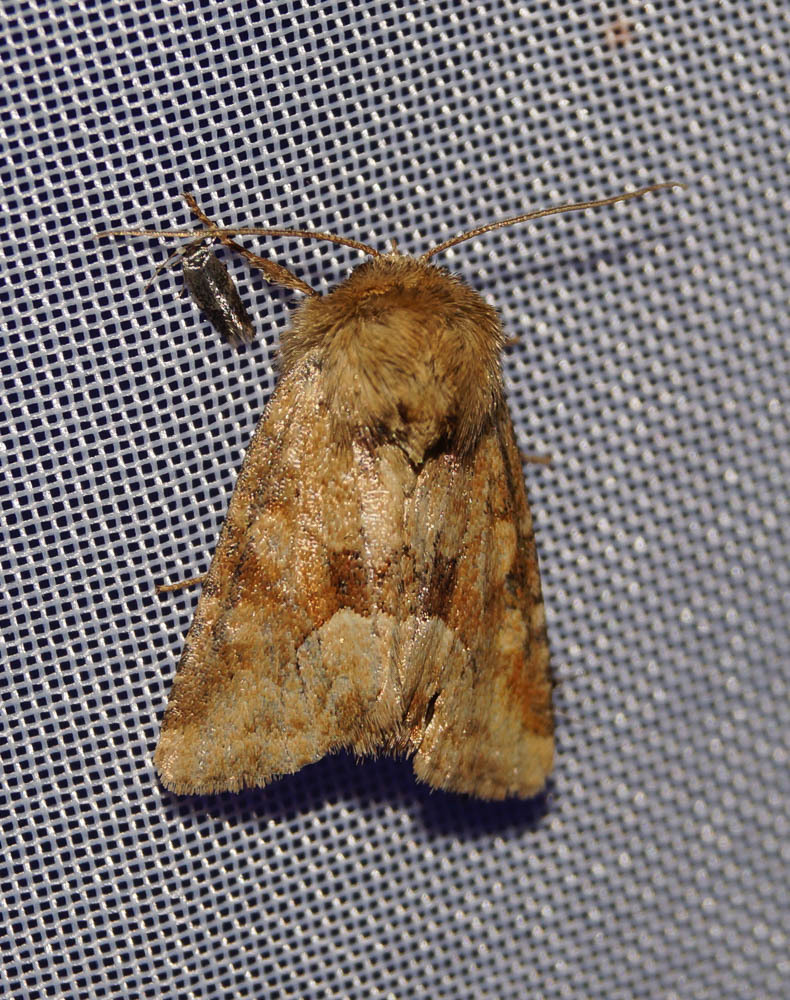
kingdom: Animalia
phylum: Arthropoda
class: Insecta
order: Lepidoptera
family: Noctuidae
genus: Oligia
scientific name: Oligia fasciuncula
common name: Middle-barred minor
